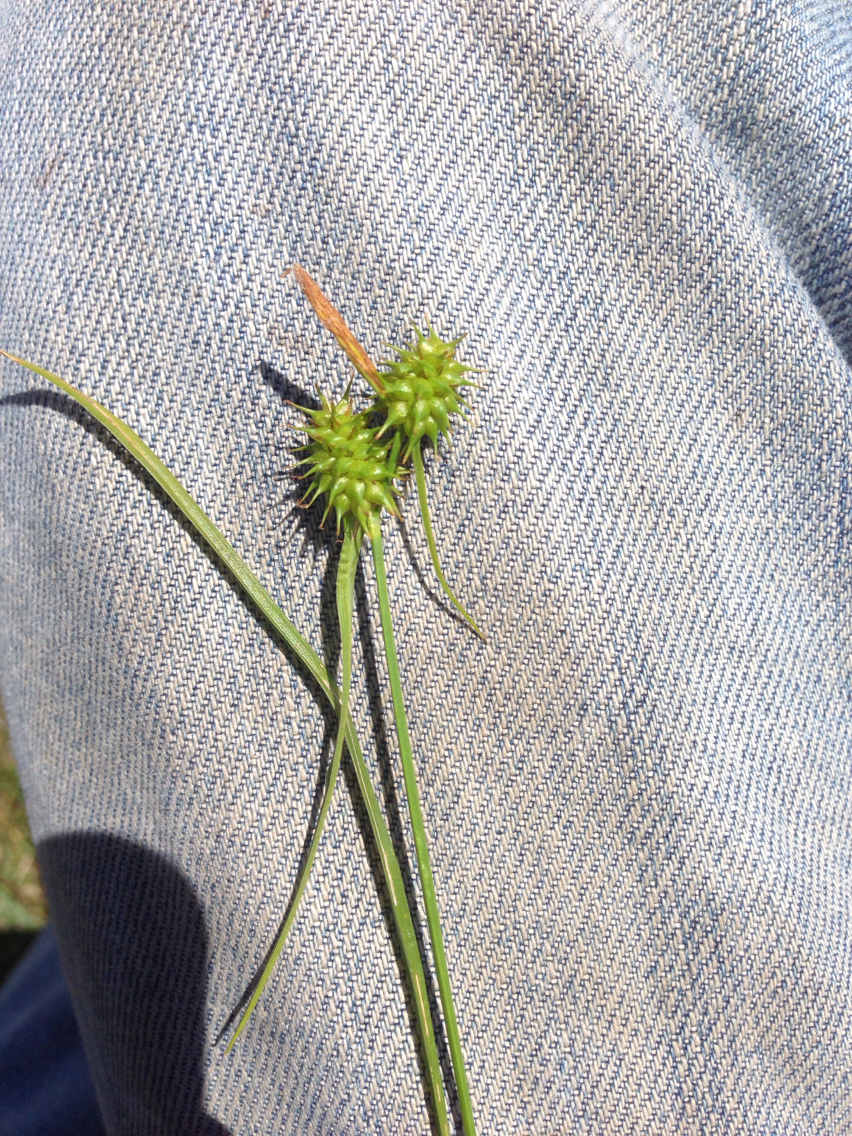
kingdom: Plantae
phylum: Tracheophyta
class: Liliopsida
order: Poales
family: Cyperaceae
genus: Carex
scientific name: Carex flava
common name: Large yellow-sedge
